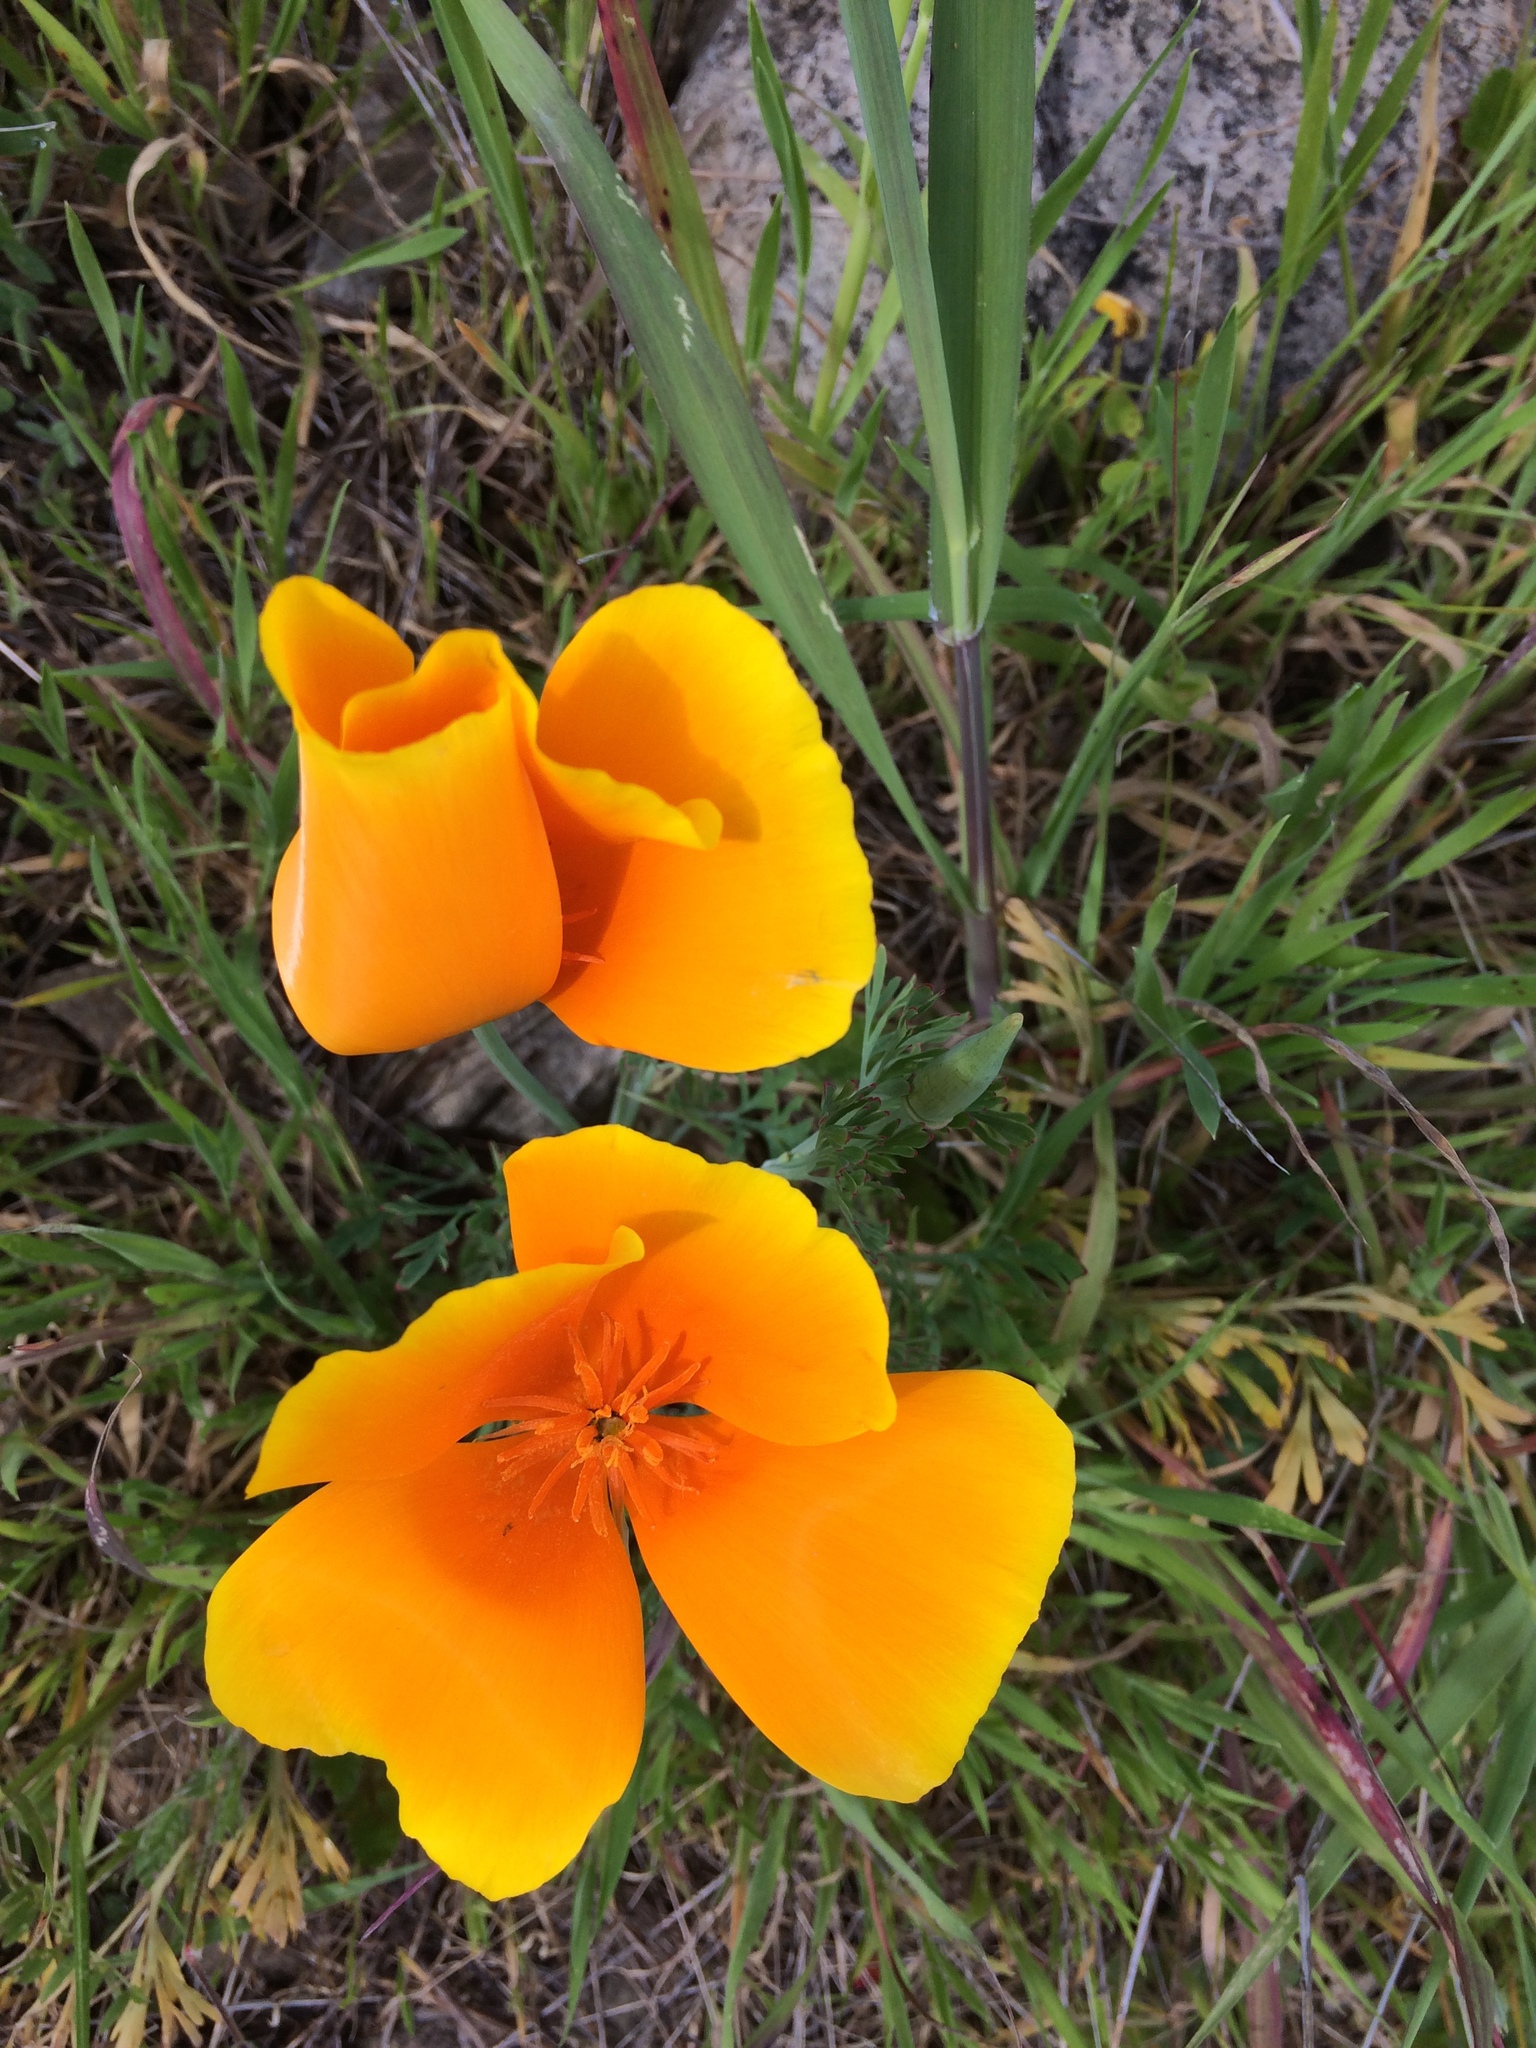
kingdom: Plantae
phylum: Tracheophyta
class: Magnoliopsida
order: Ranunculales
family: Papaveraceae
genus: Eschscholzia
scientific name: Eschscholzia californica
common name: California poppy
